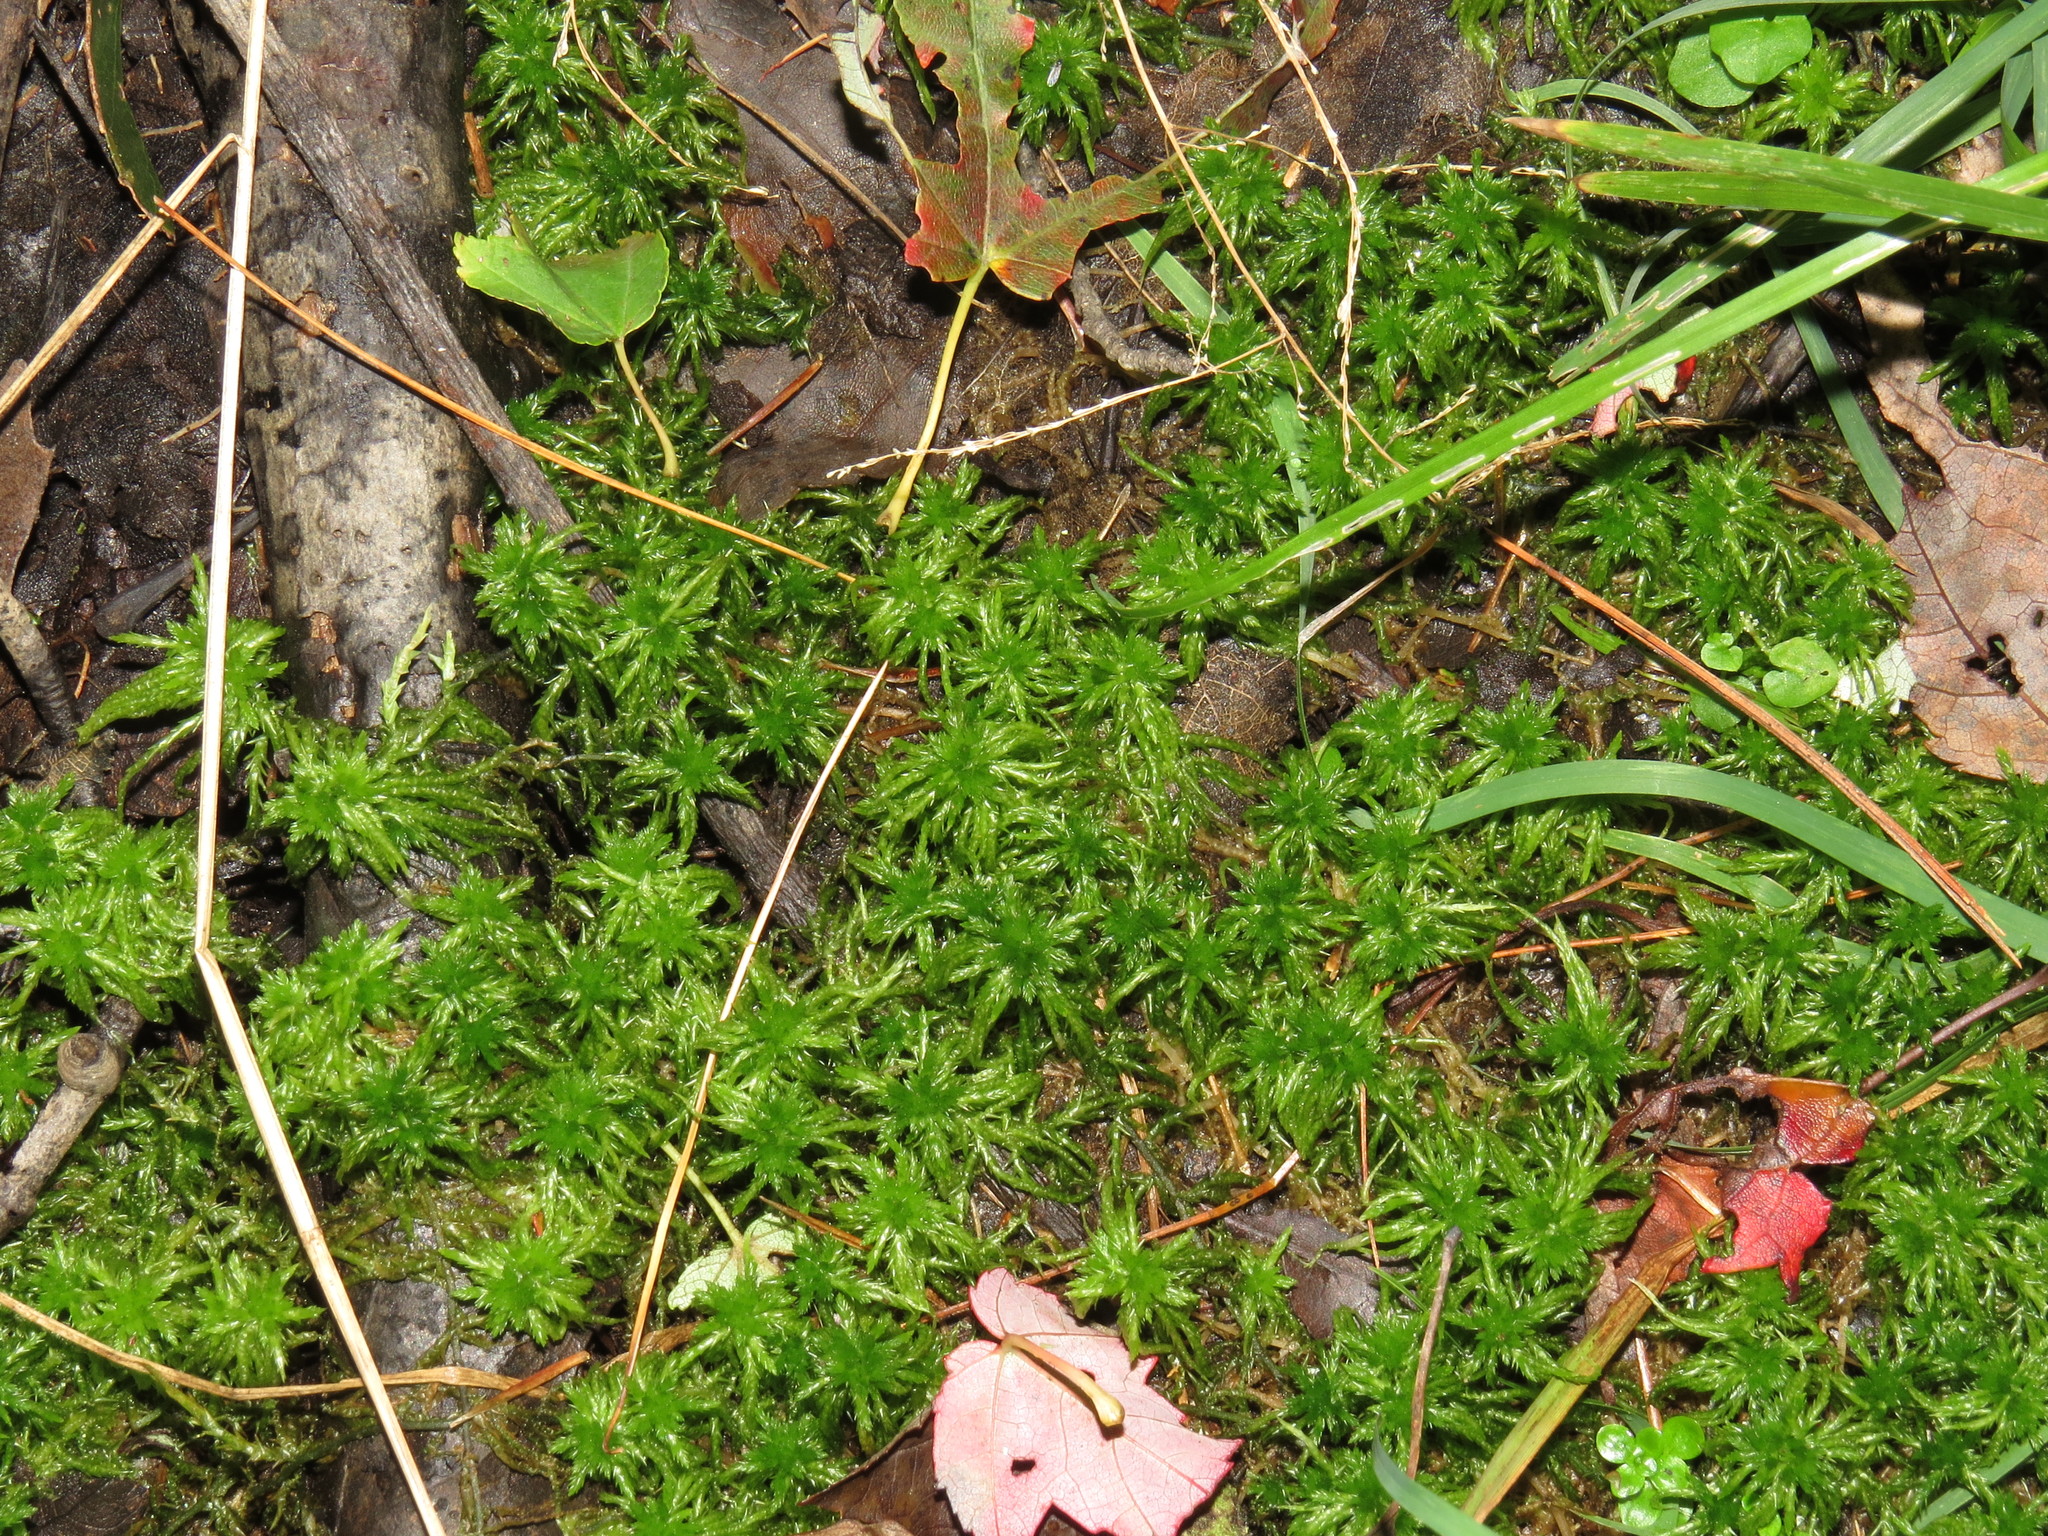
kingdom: Plantae
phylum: Bryophyta
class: Sphagnopsida
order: Sphagnales
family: Sphagnaceae
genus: Sphagnum
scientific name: Sphagnum
